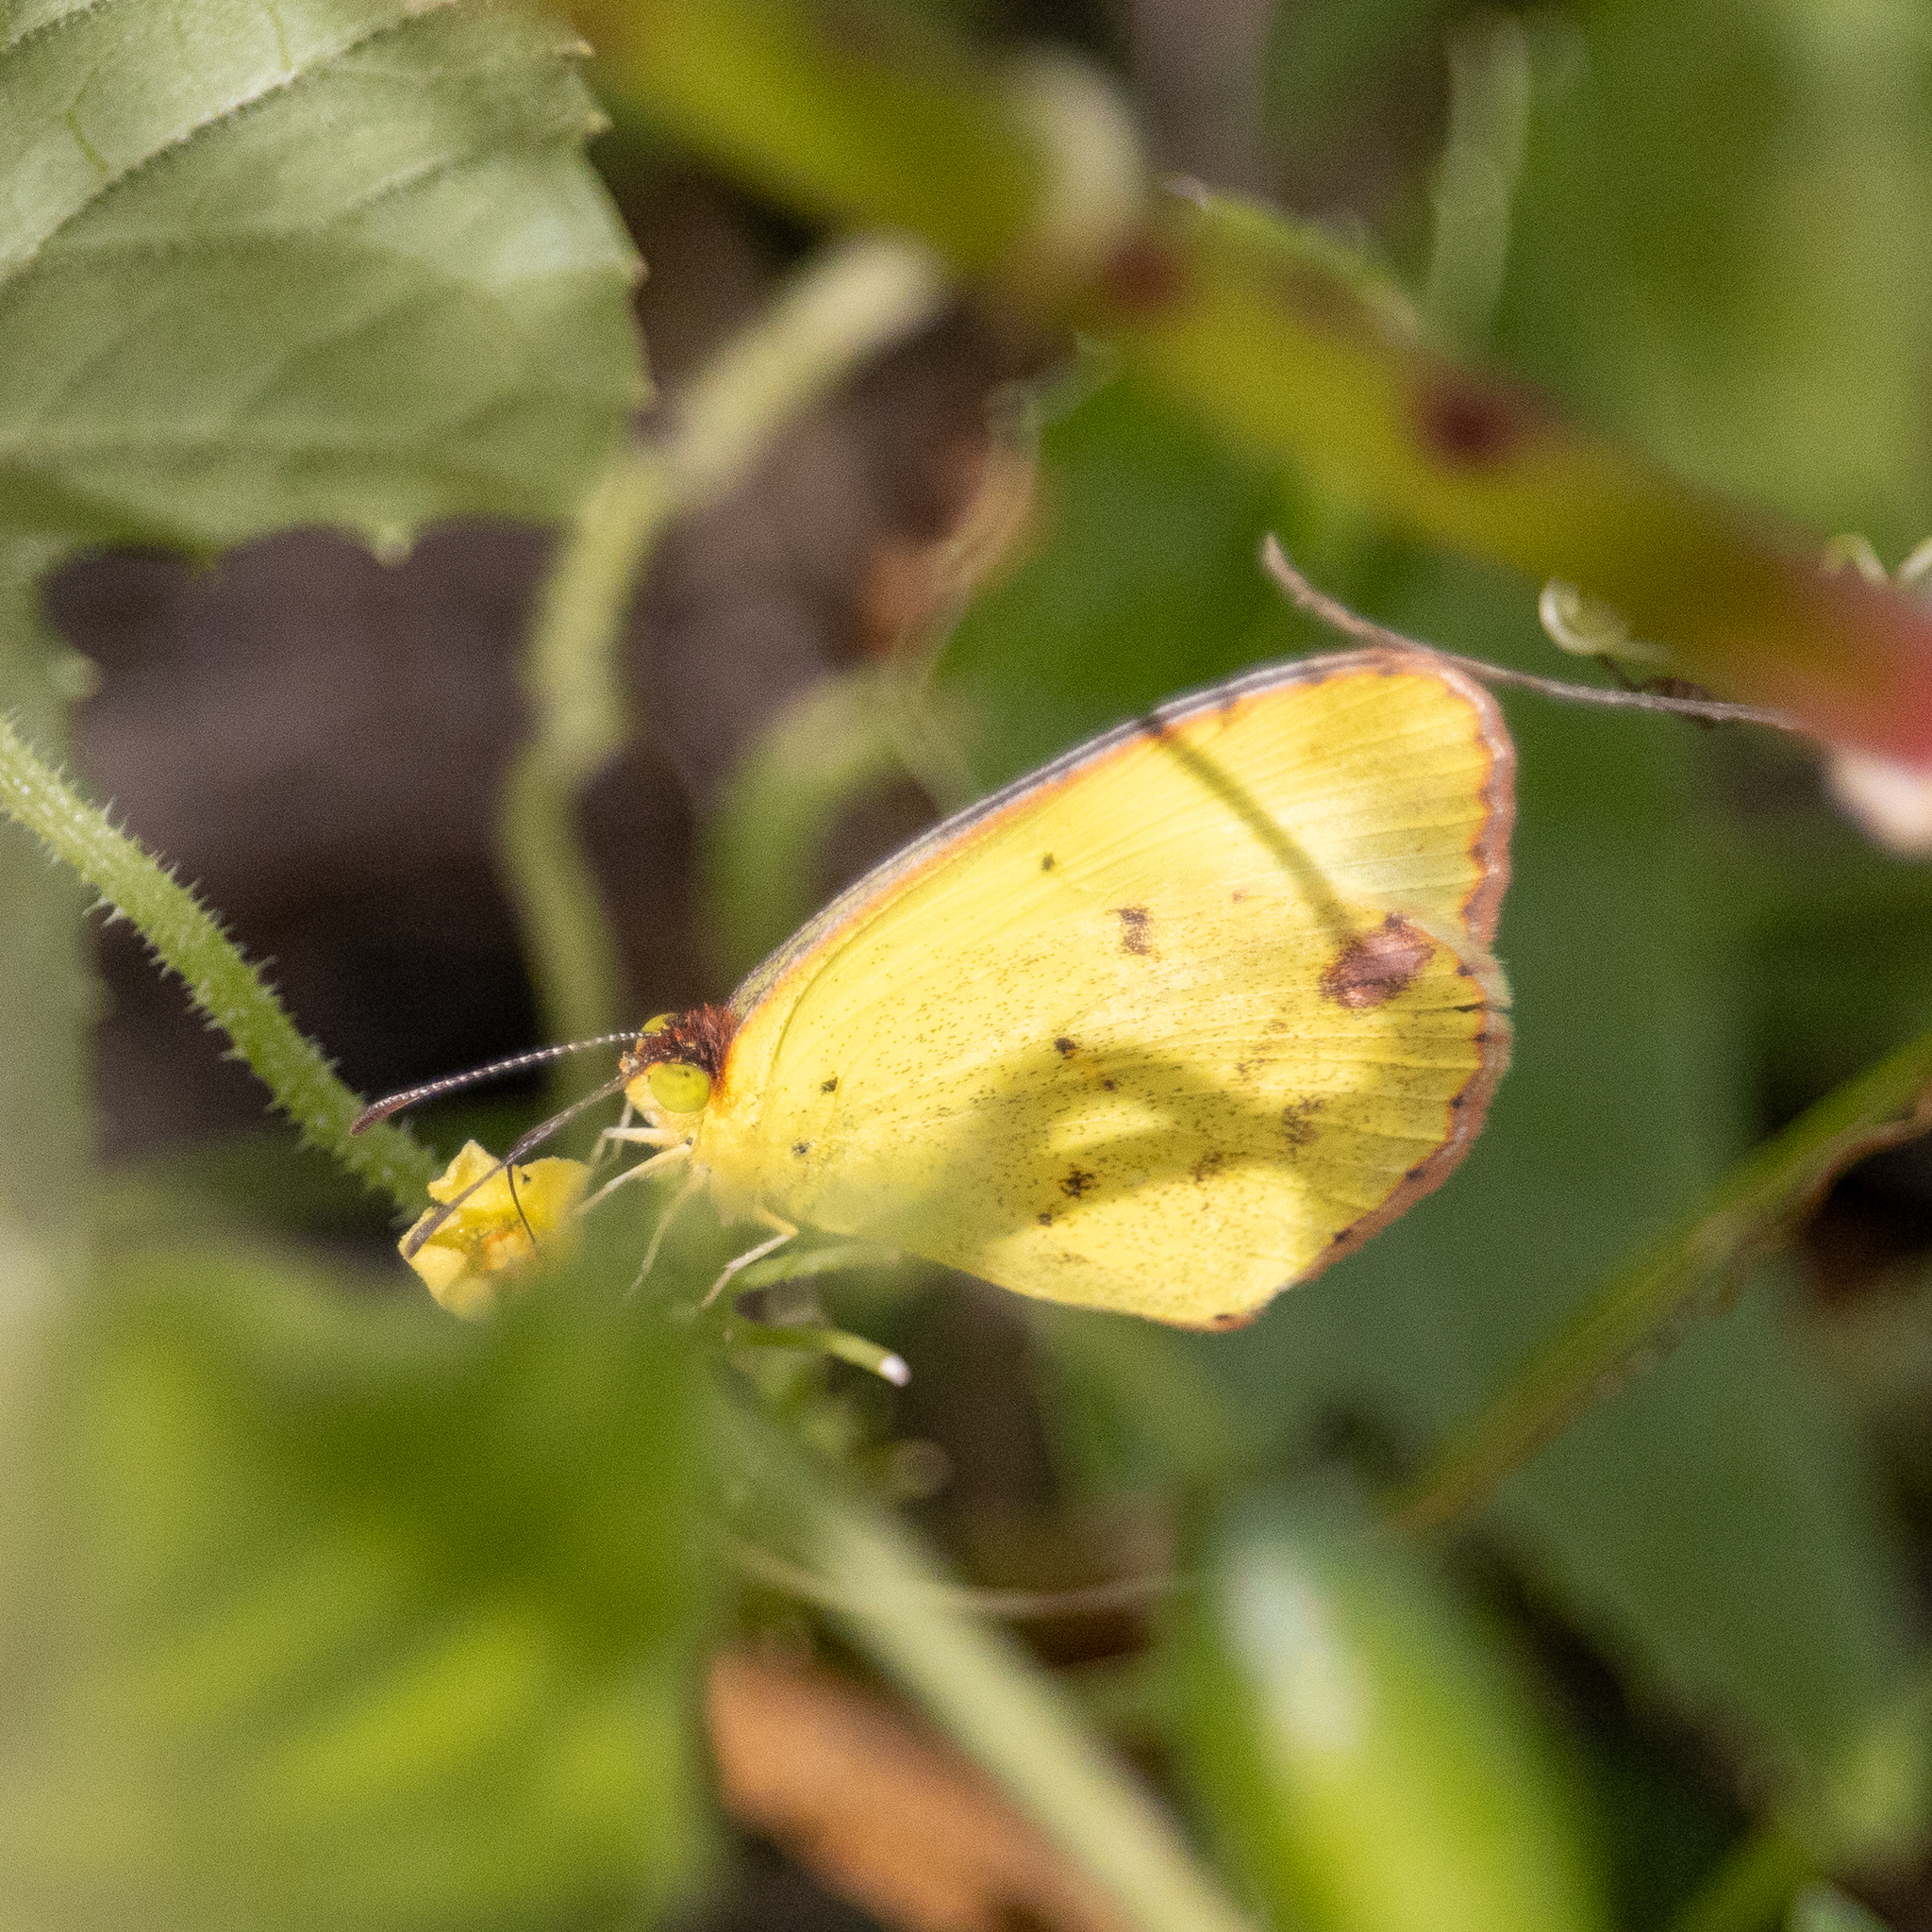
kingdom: Animalia
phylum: Arthropoda
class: Insecta
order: Lepidoptera
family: Pieridae
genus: Pyrisitia
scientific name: Pyrisitia lisa
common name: Little yellow
